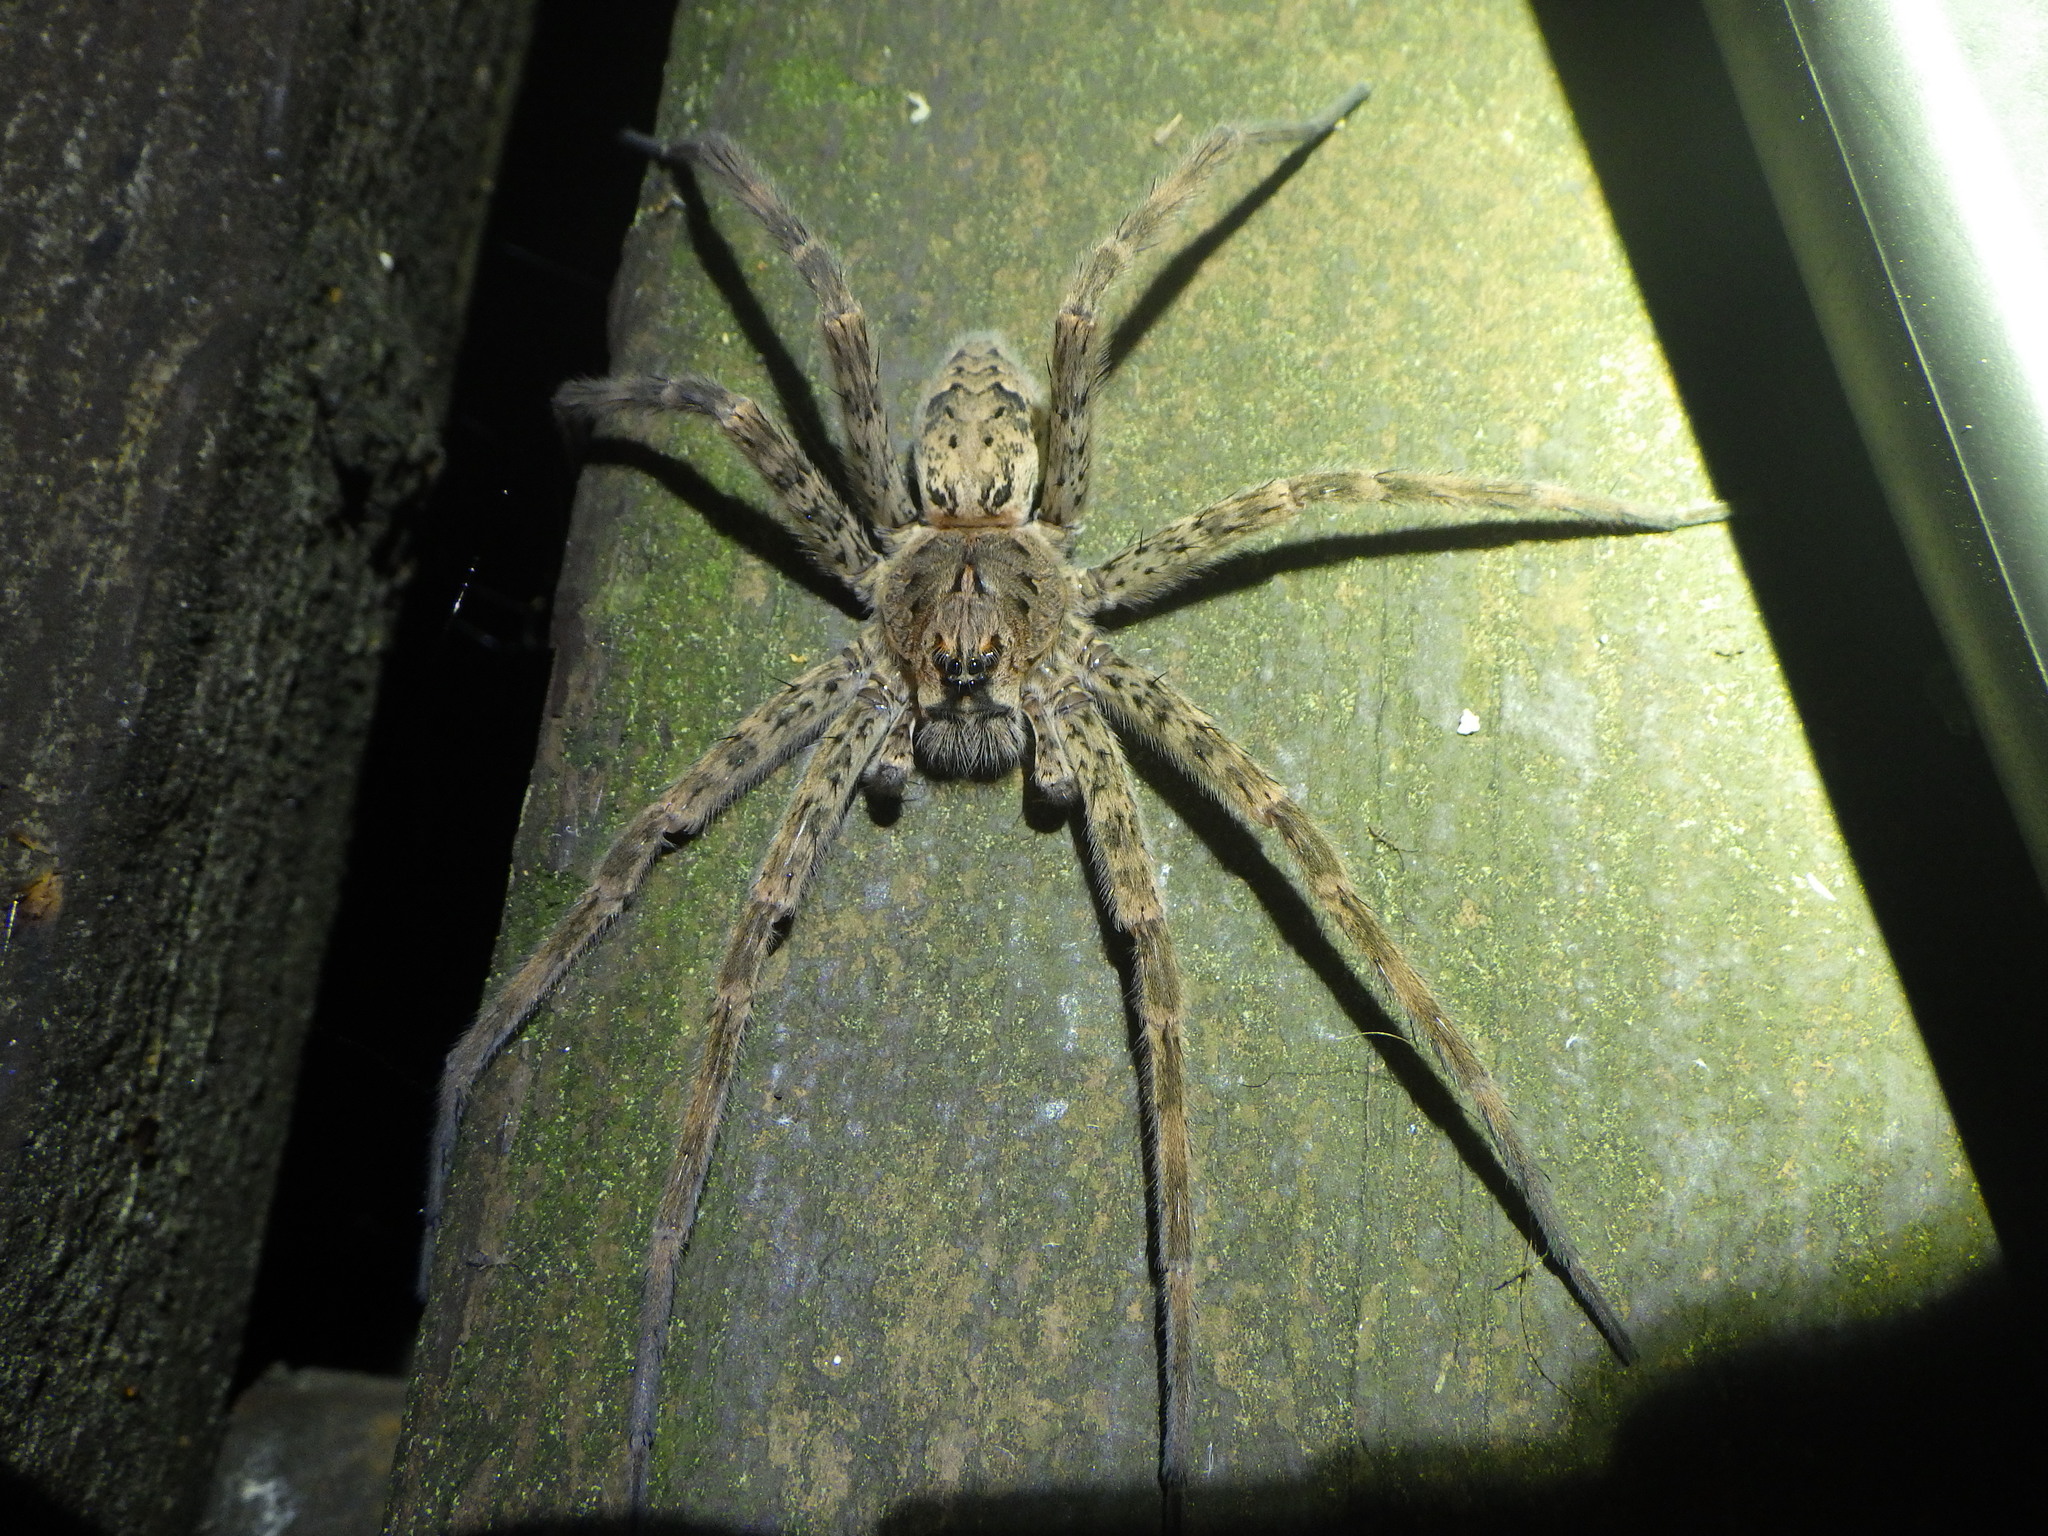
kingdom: Animalia
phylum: Arthropoda
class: Arachnida
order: Araneae
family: Pisauridae
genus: Dolomedes
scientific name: Dolomedes tenebrosus
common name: Dark fishing spider
